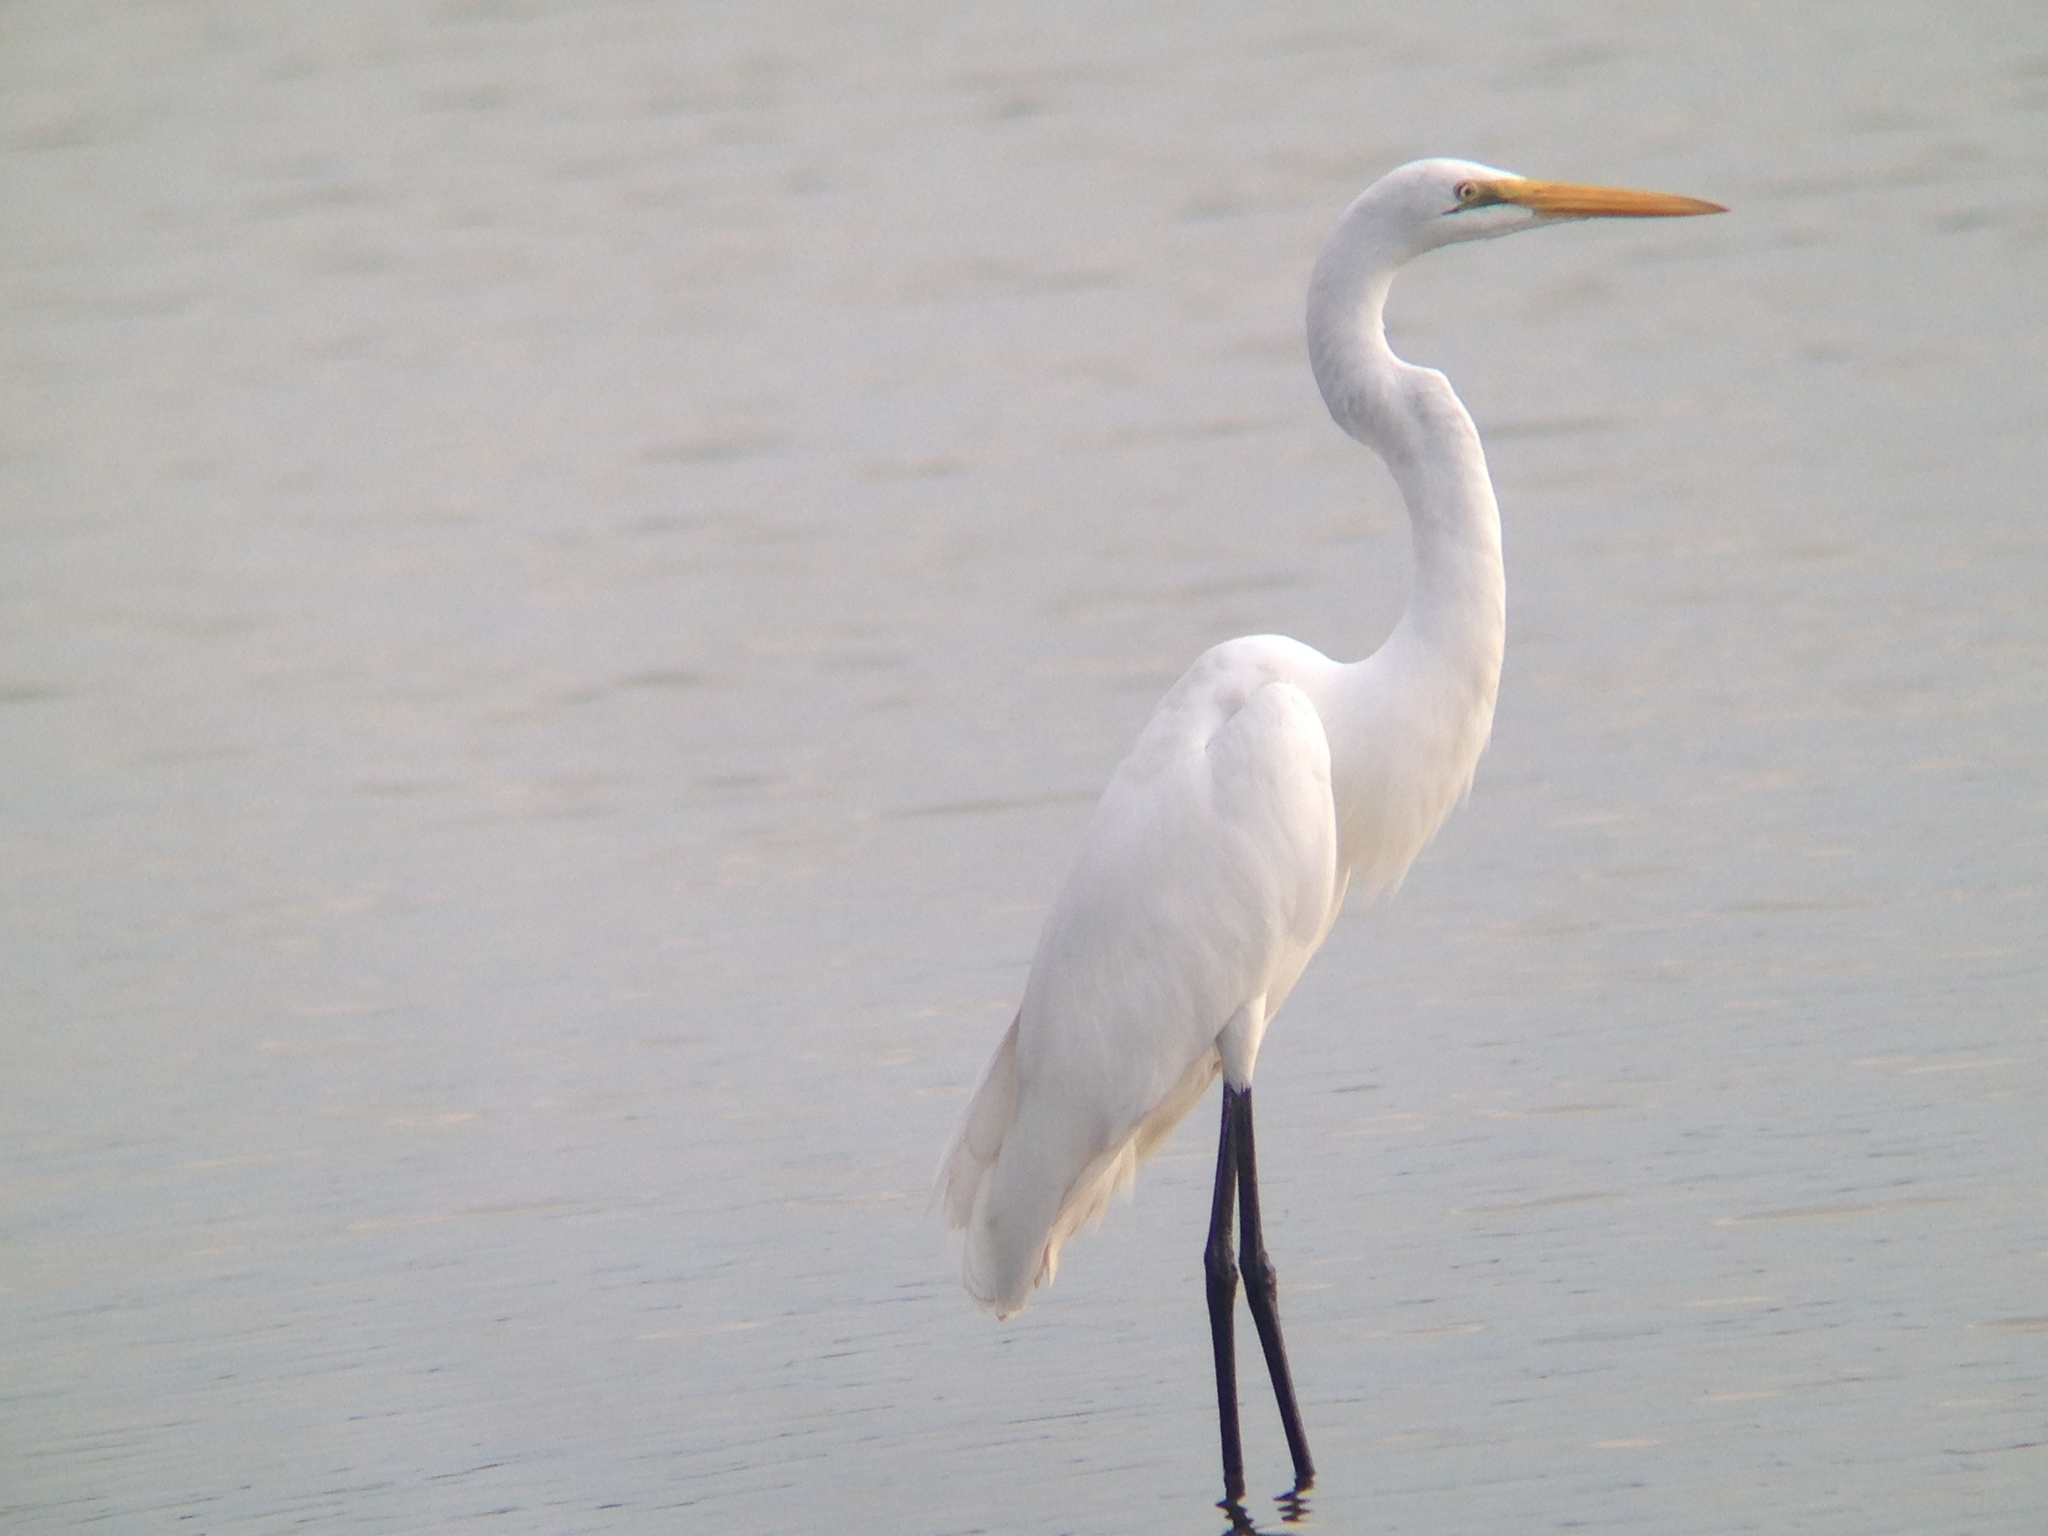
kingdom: Animalia
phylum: Chordata
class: Aves
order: Pelecaniformes
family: Ardeidae
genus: Ardea
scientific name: Ardea alba
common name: Great egret
